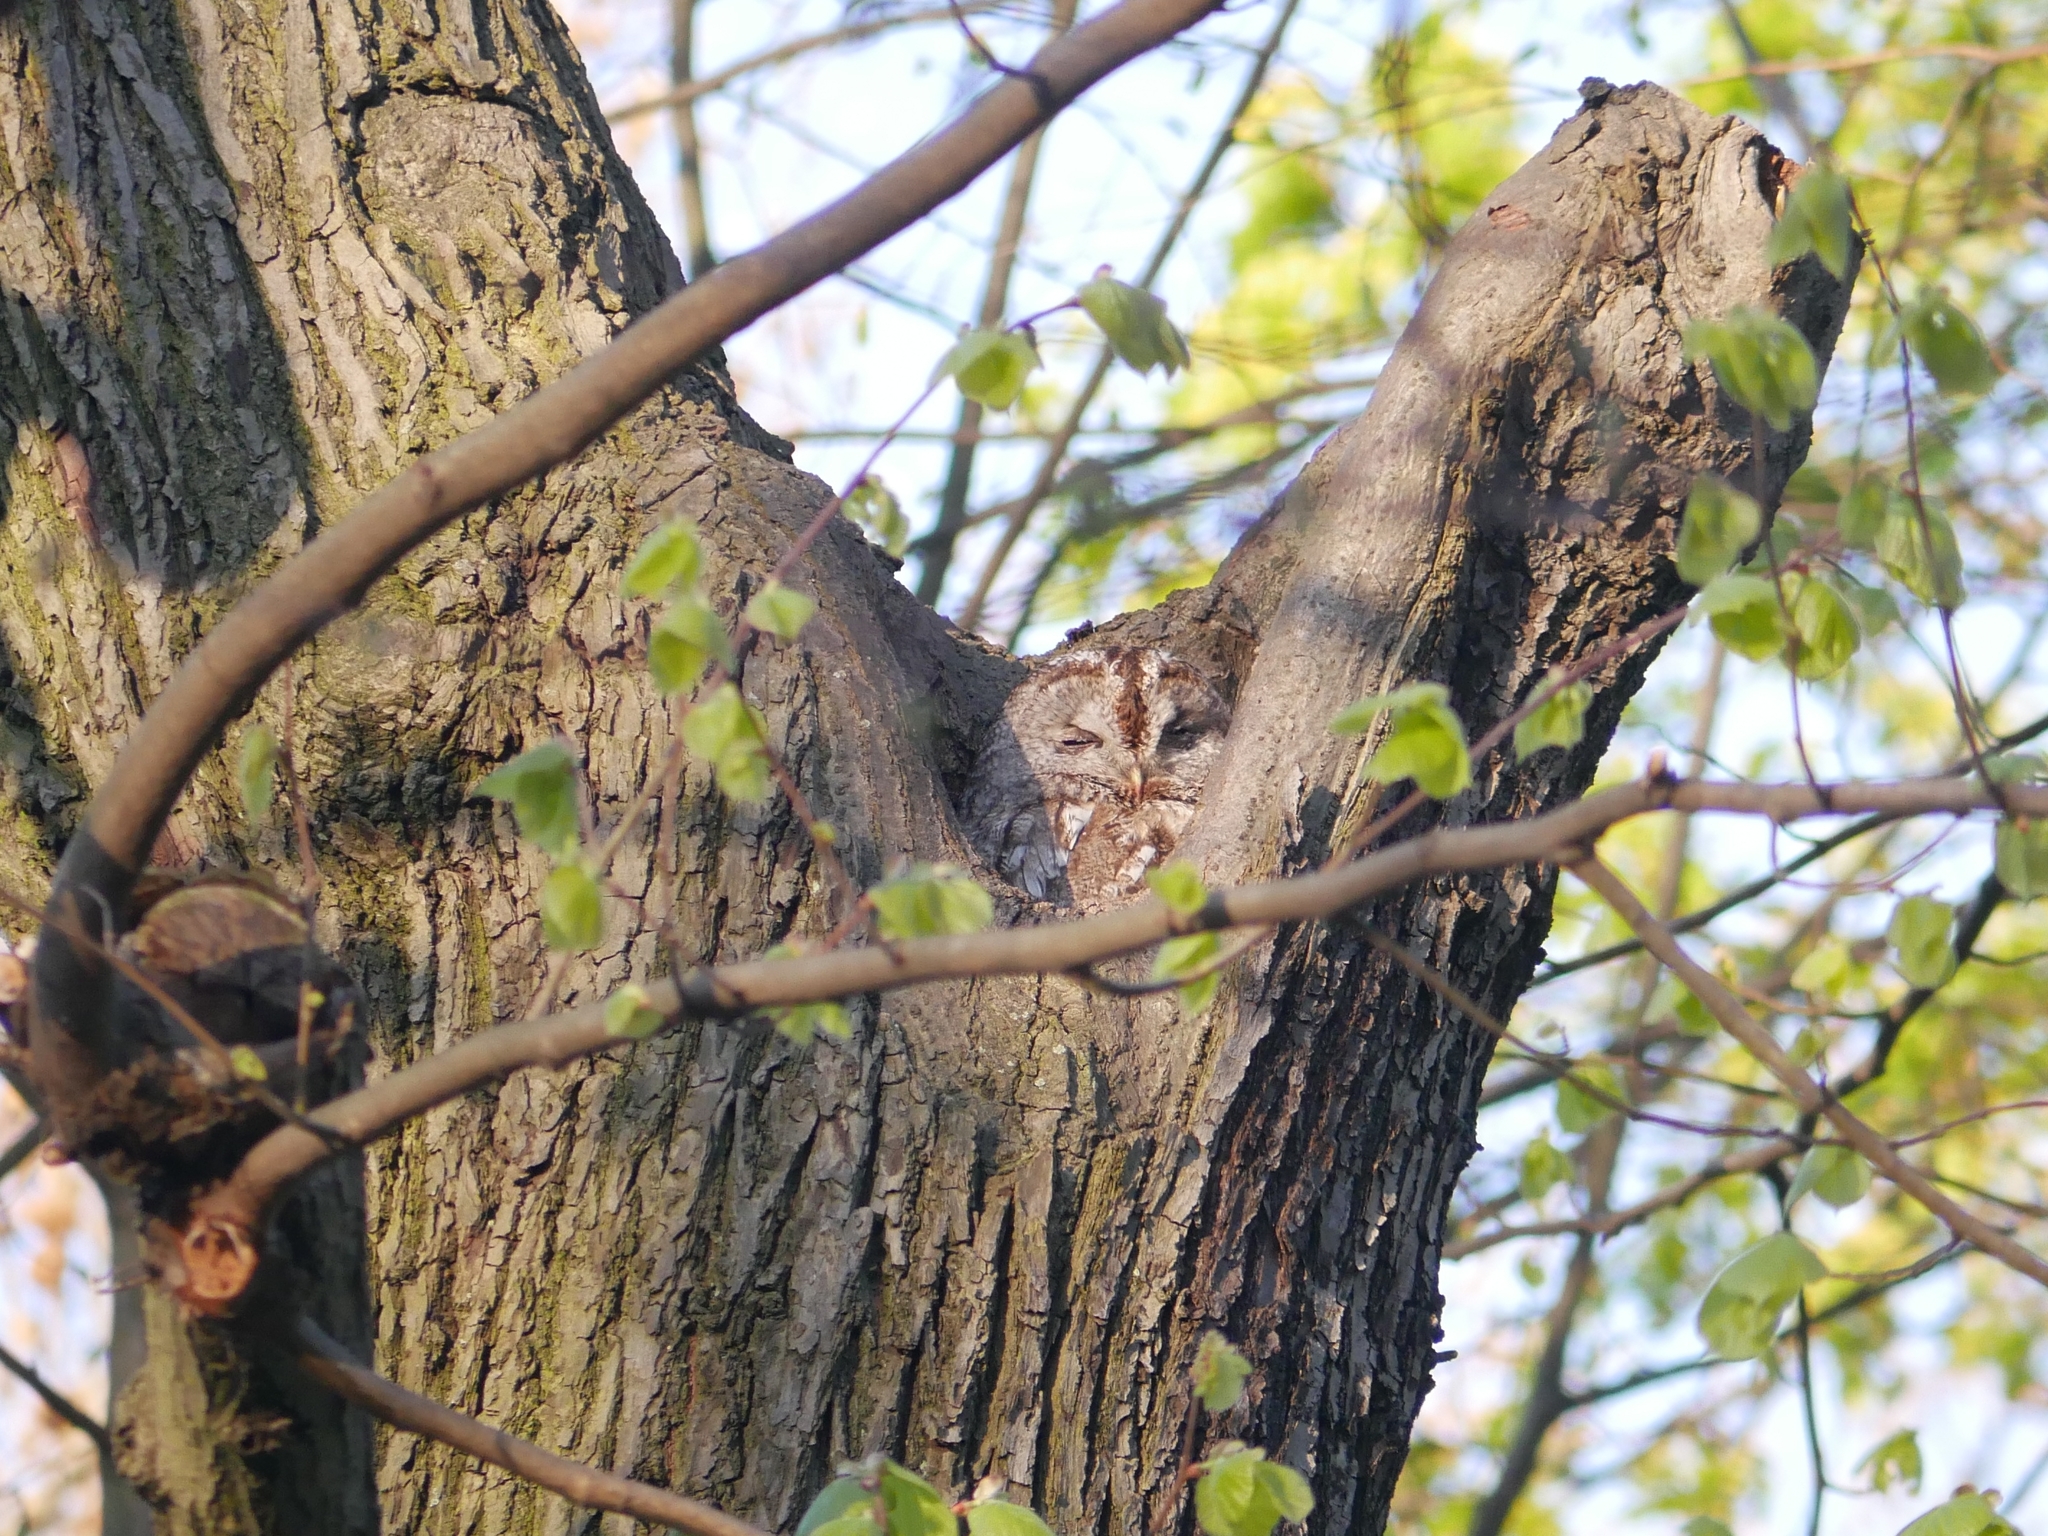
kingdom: Animalia
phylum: Chordata
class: Aves
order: Strigiformes
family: Strigidae
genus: Strix
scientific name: Strix aluco
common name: Tawny owl
